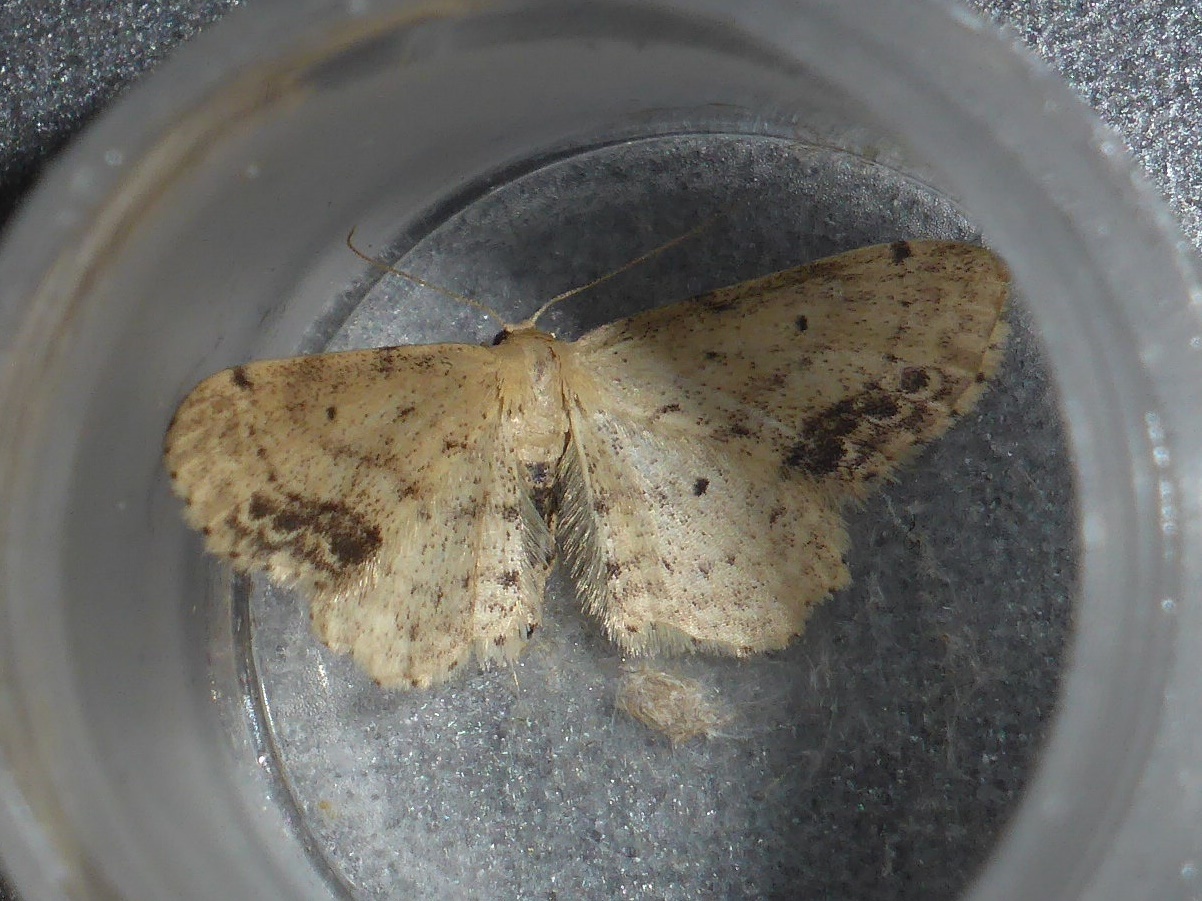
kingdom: Animalia
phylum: Arthropoda
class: Insecta
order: Lepidoptera
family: Geometridae
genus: Idaea
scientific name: Idaea dimidiata
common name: Single-dotted wave
